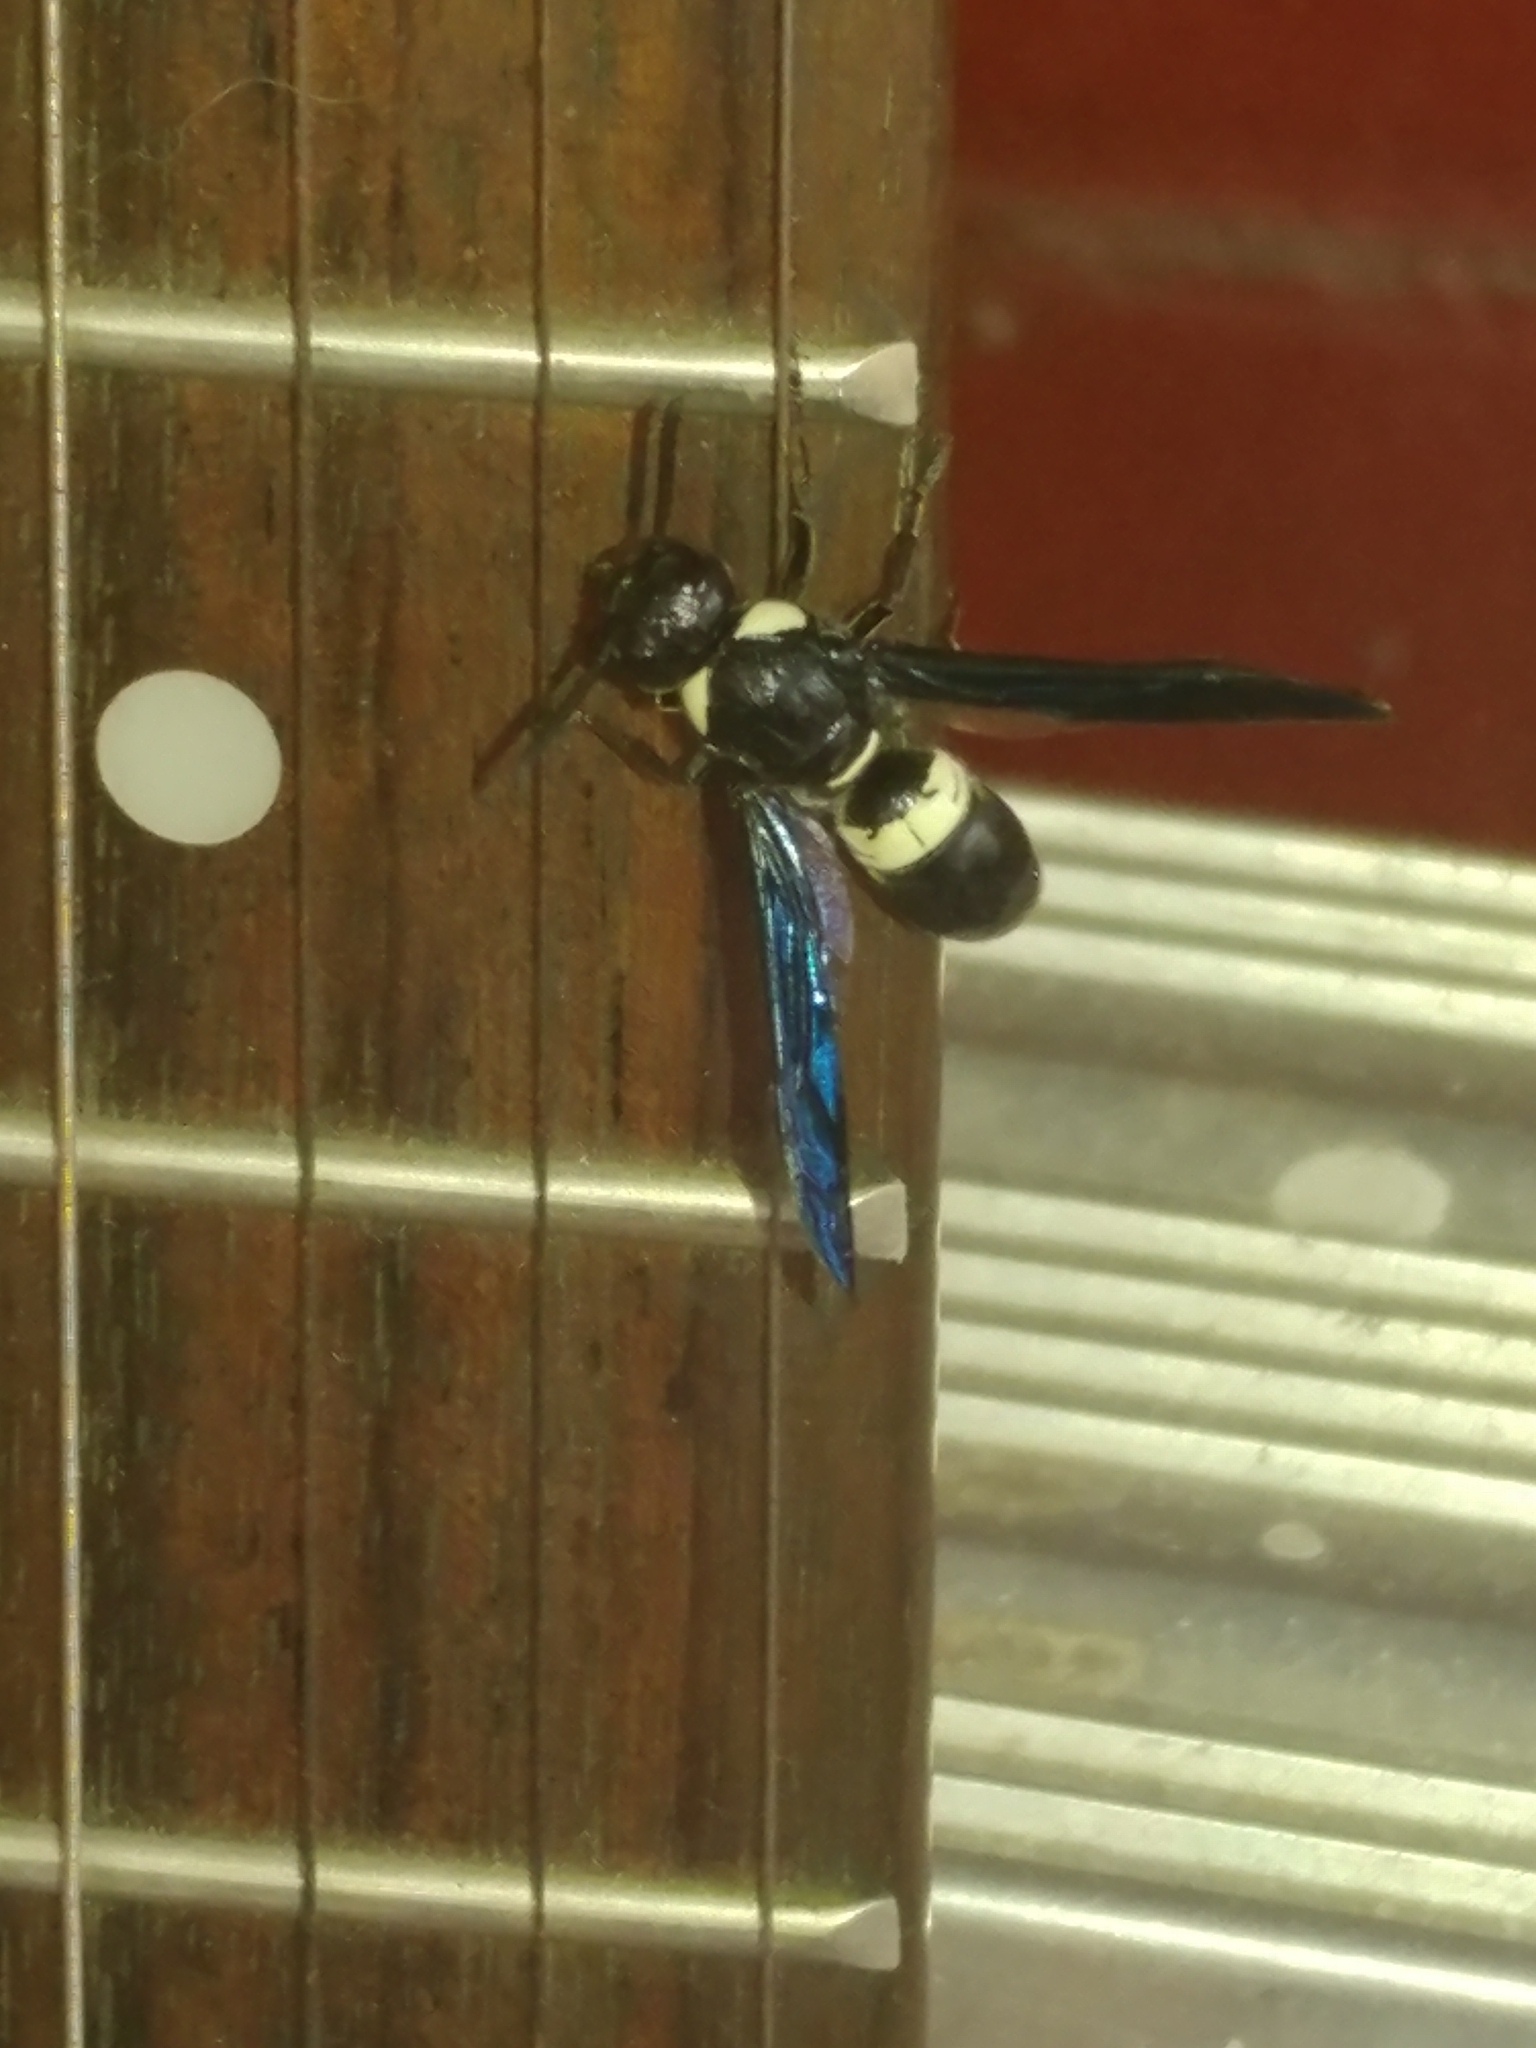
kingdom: Animalia
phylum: Arthropoda
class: Insecta
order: Hymenoptera
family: Eumenidae
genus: Monobia
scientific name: Monobia quadridens
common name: Four-toothed mason wasp
